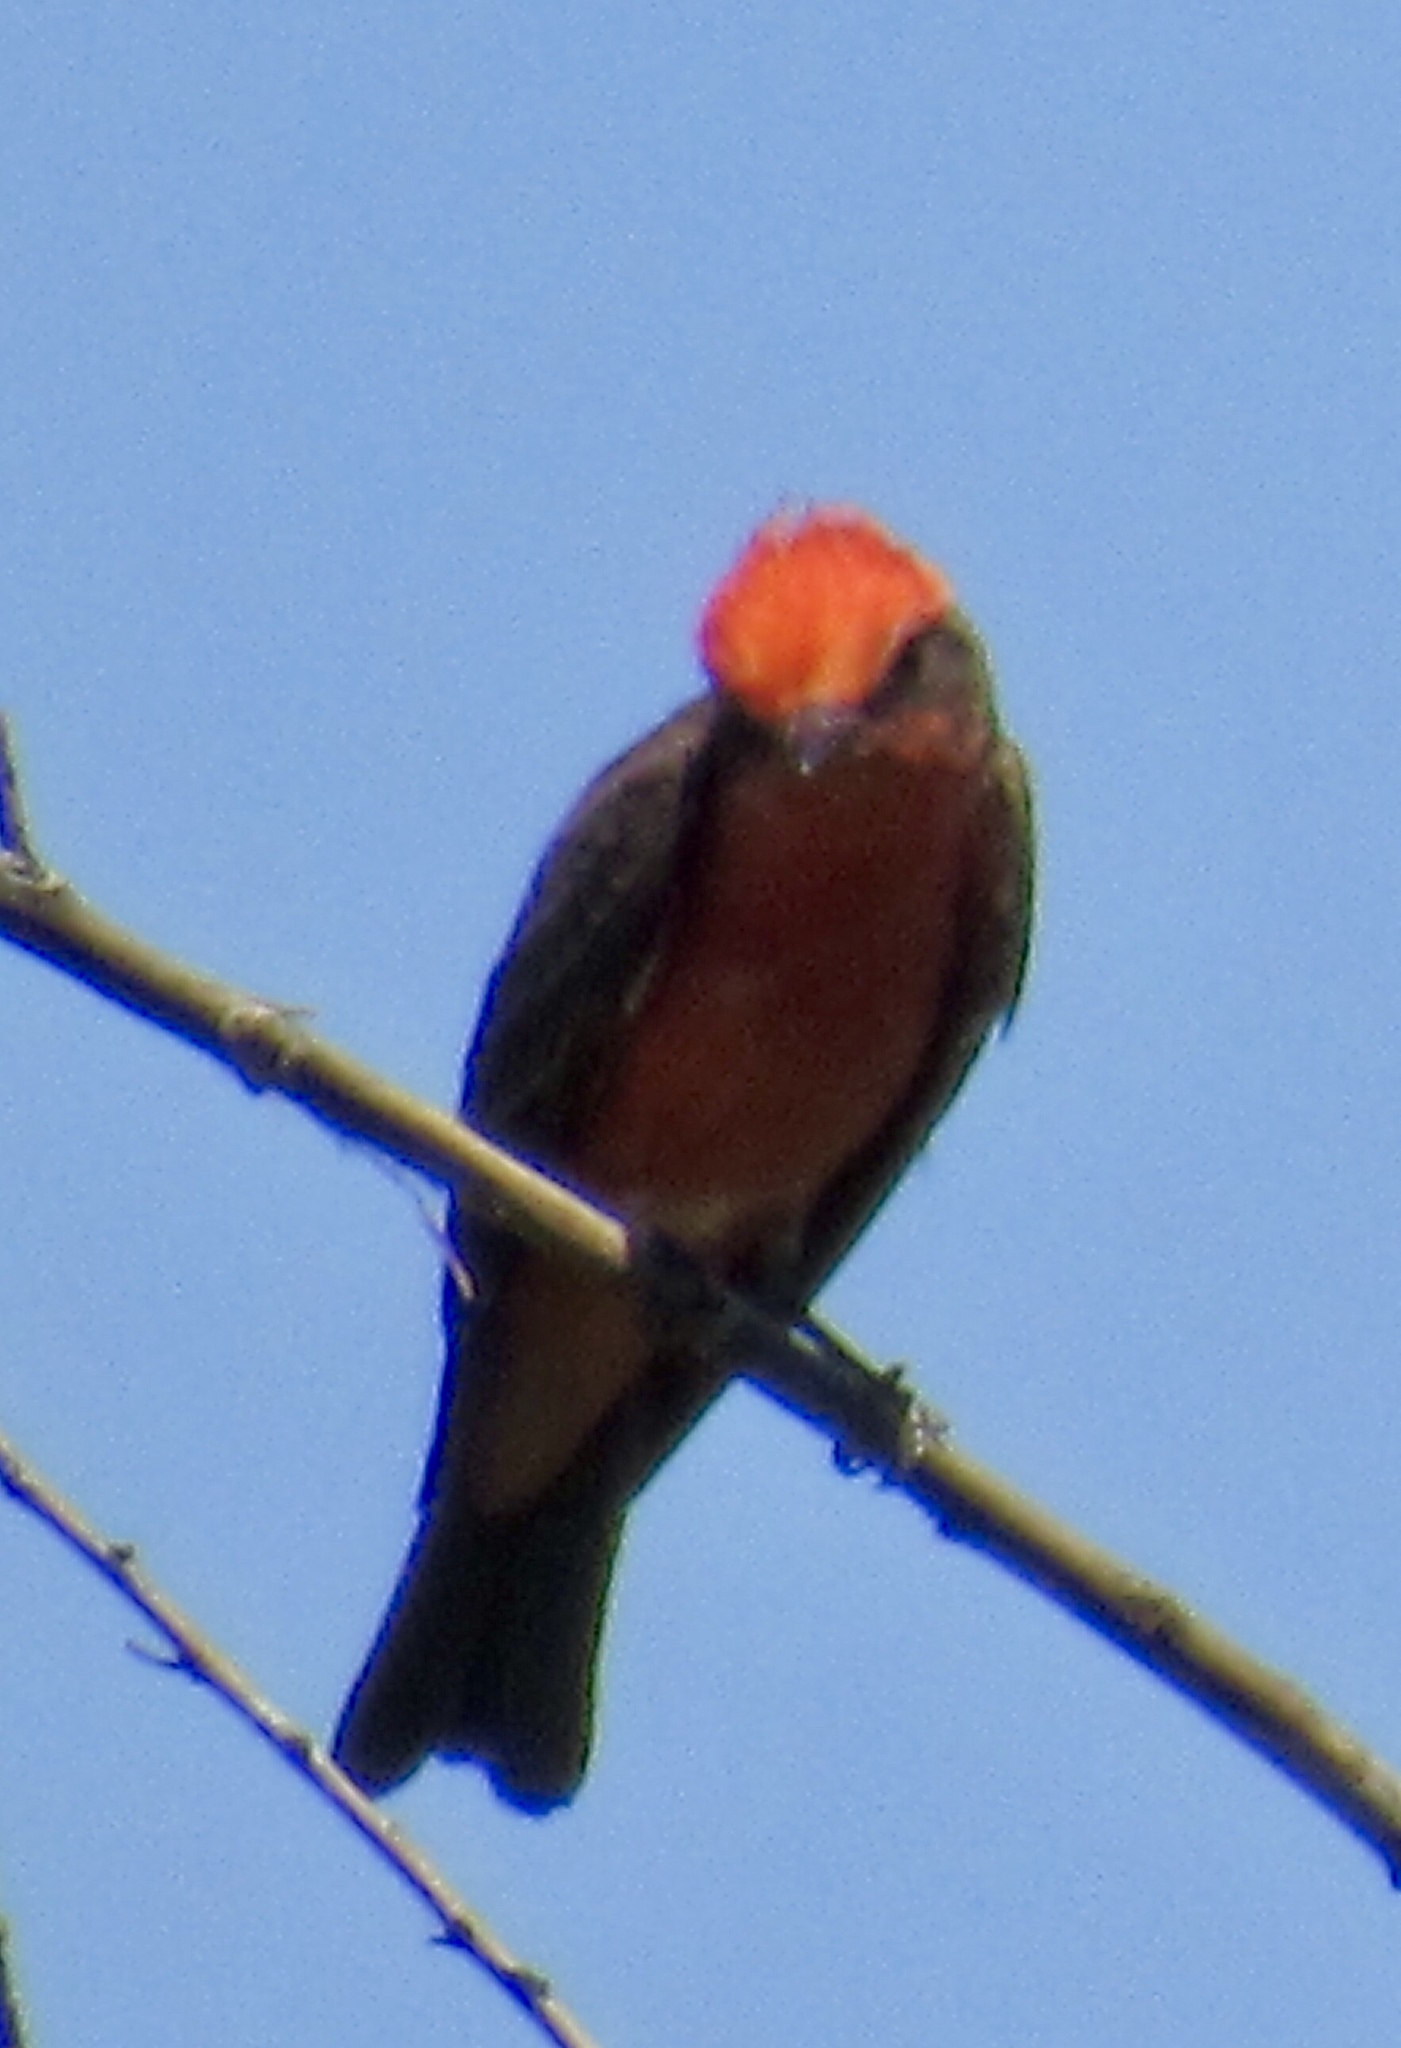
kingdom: Animalia
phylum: Chordata
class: Aves
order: Passeriformes
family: Tyrannidae
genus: Pyrocephalus
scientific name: Pyrocephalus rubinus
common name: Vermilion flycatcher
